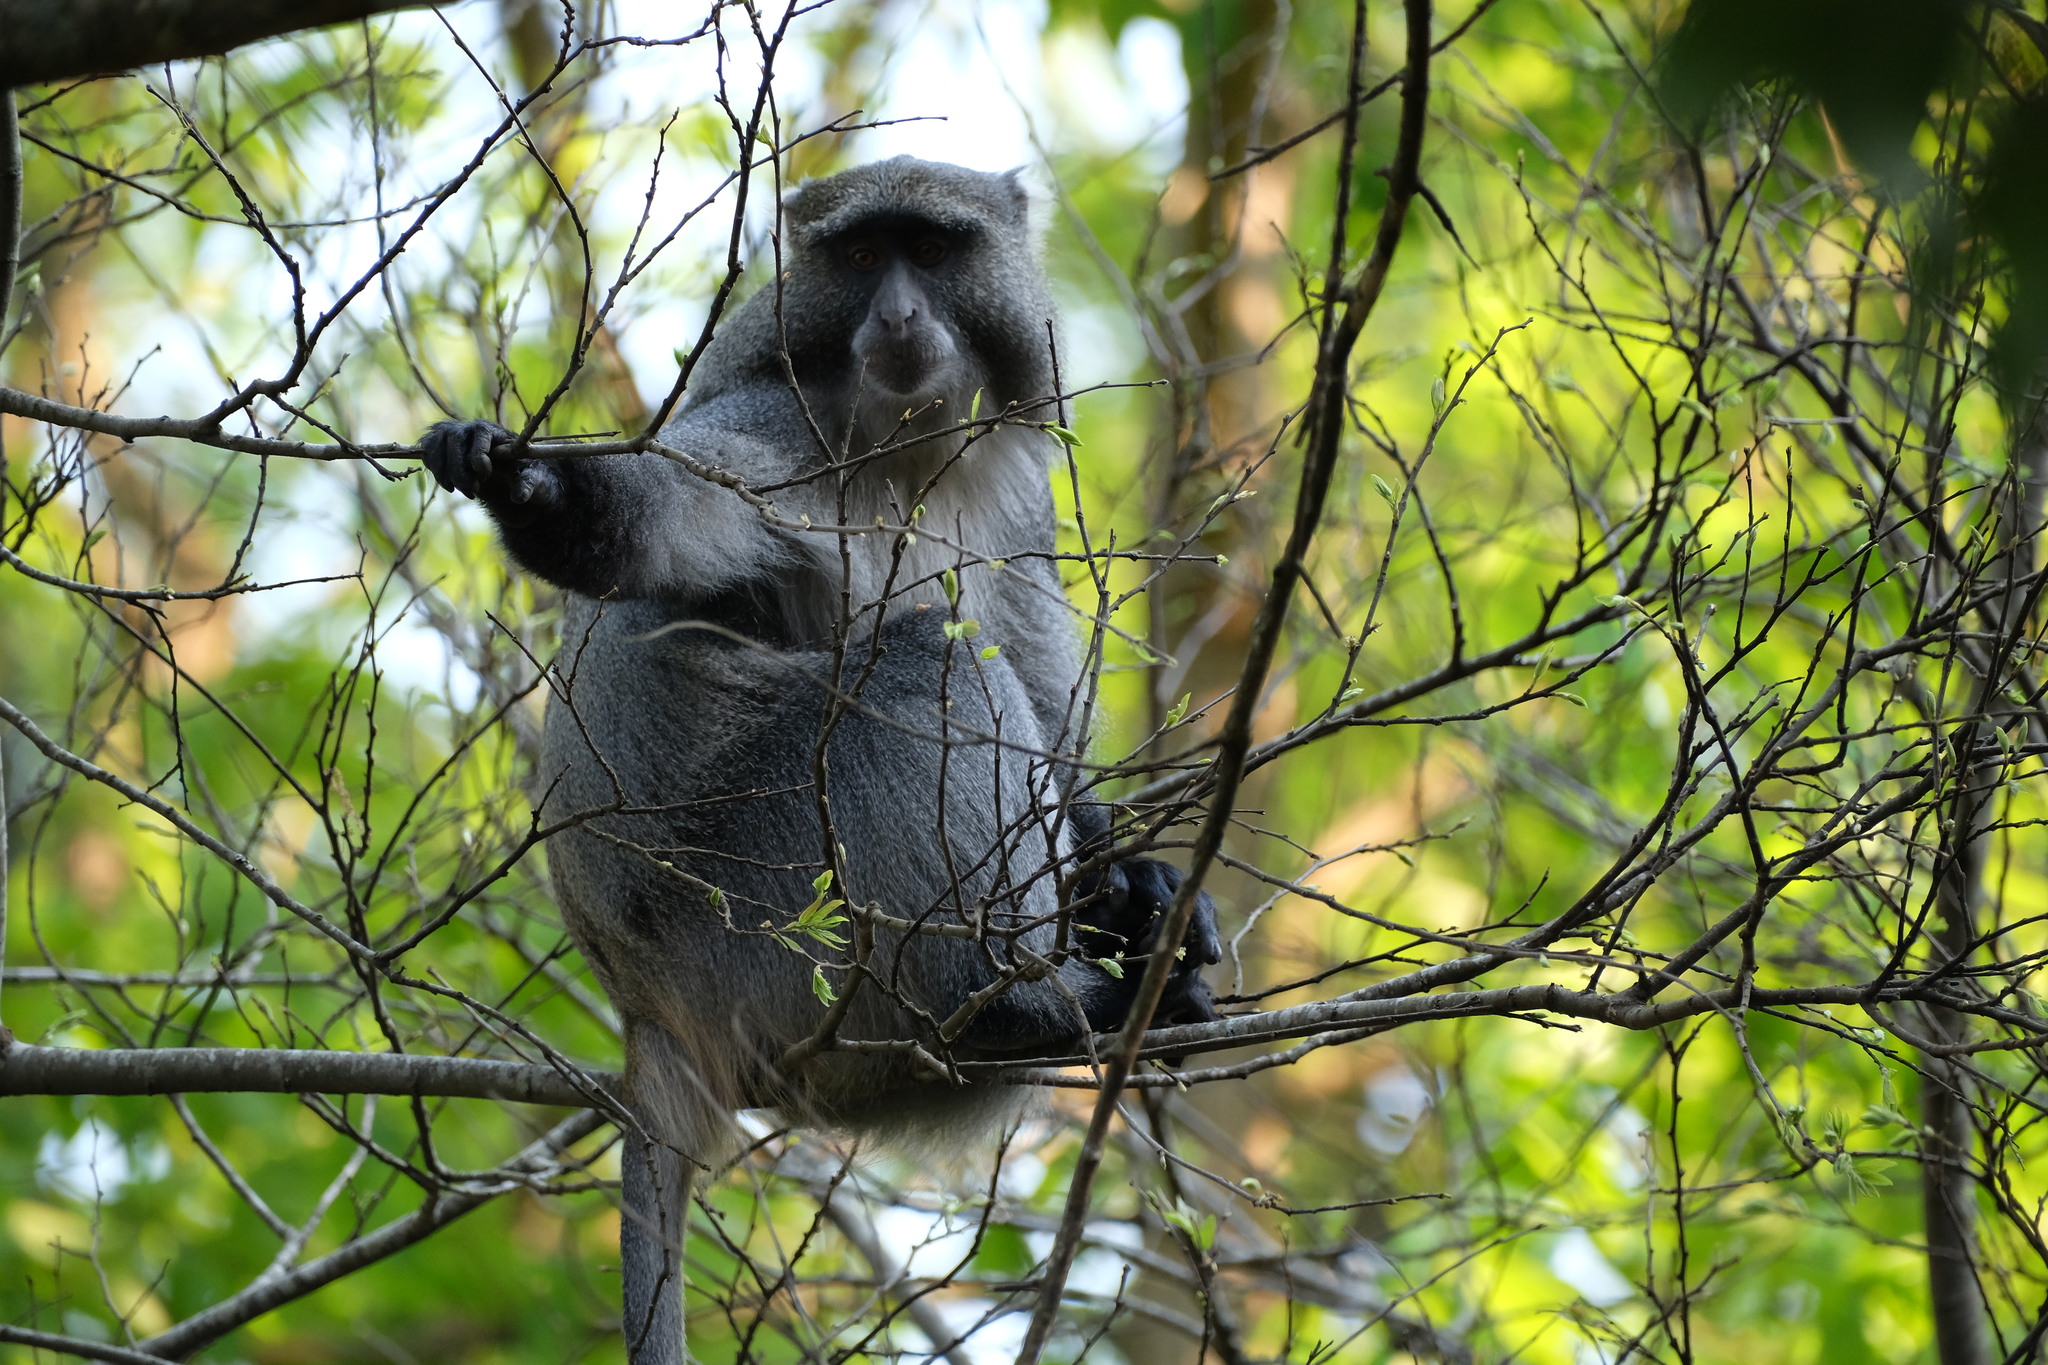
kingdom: Animalia
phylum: Chordata
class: Mammalia
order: Primates
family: Cercopithecidae
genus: Cercopithecus
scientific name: Cercopithecus mitis
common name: Blue monkey
